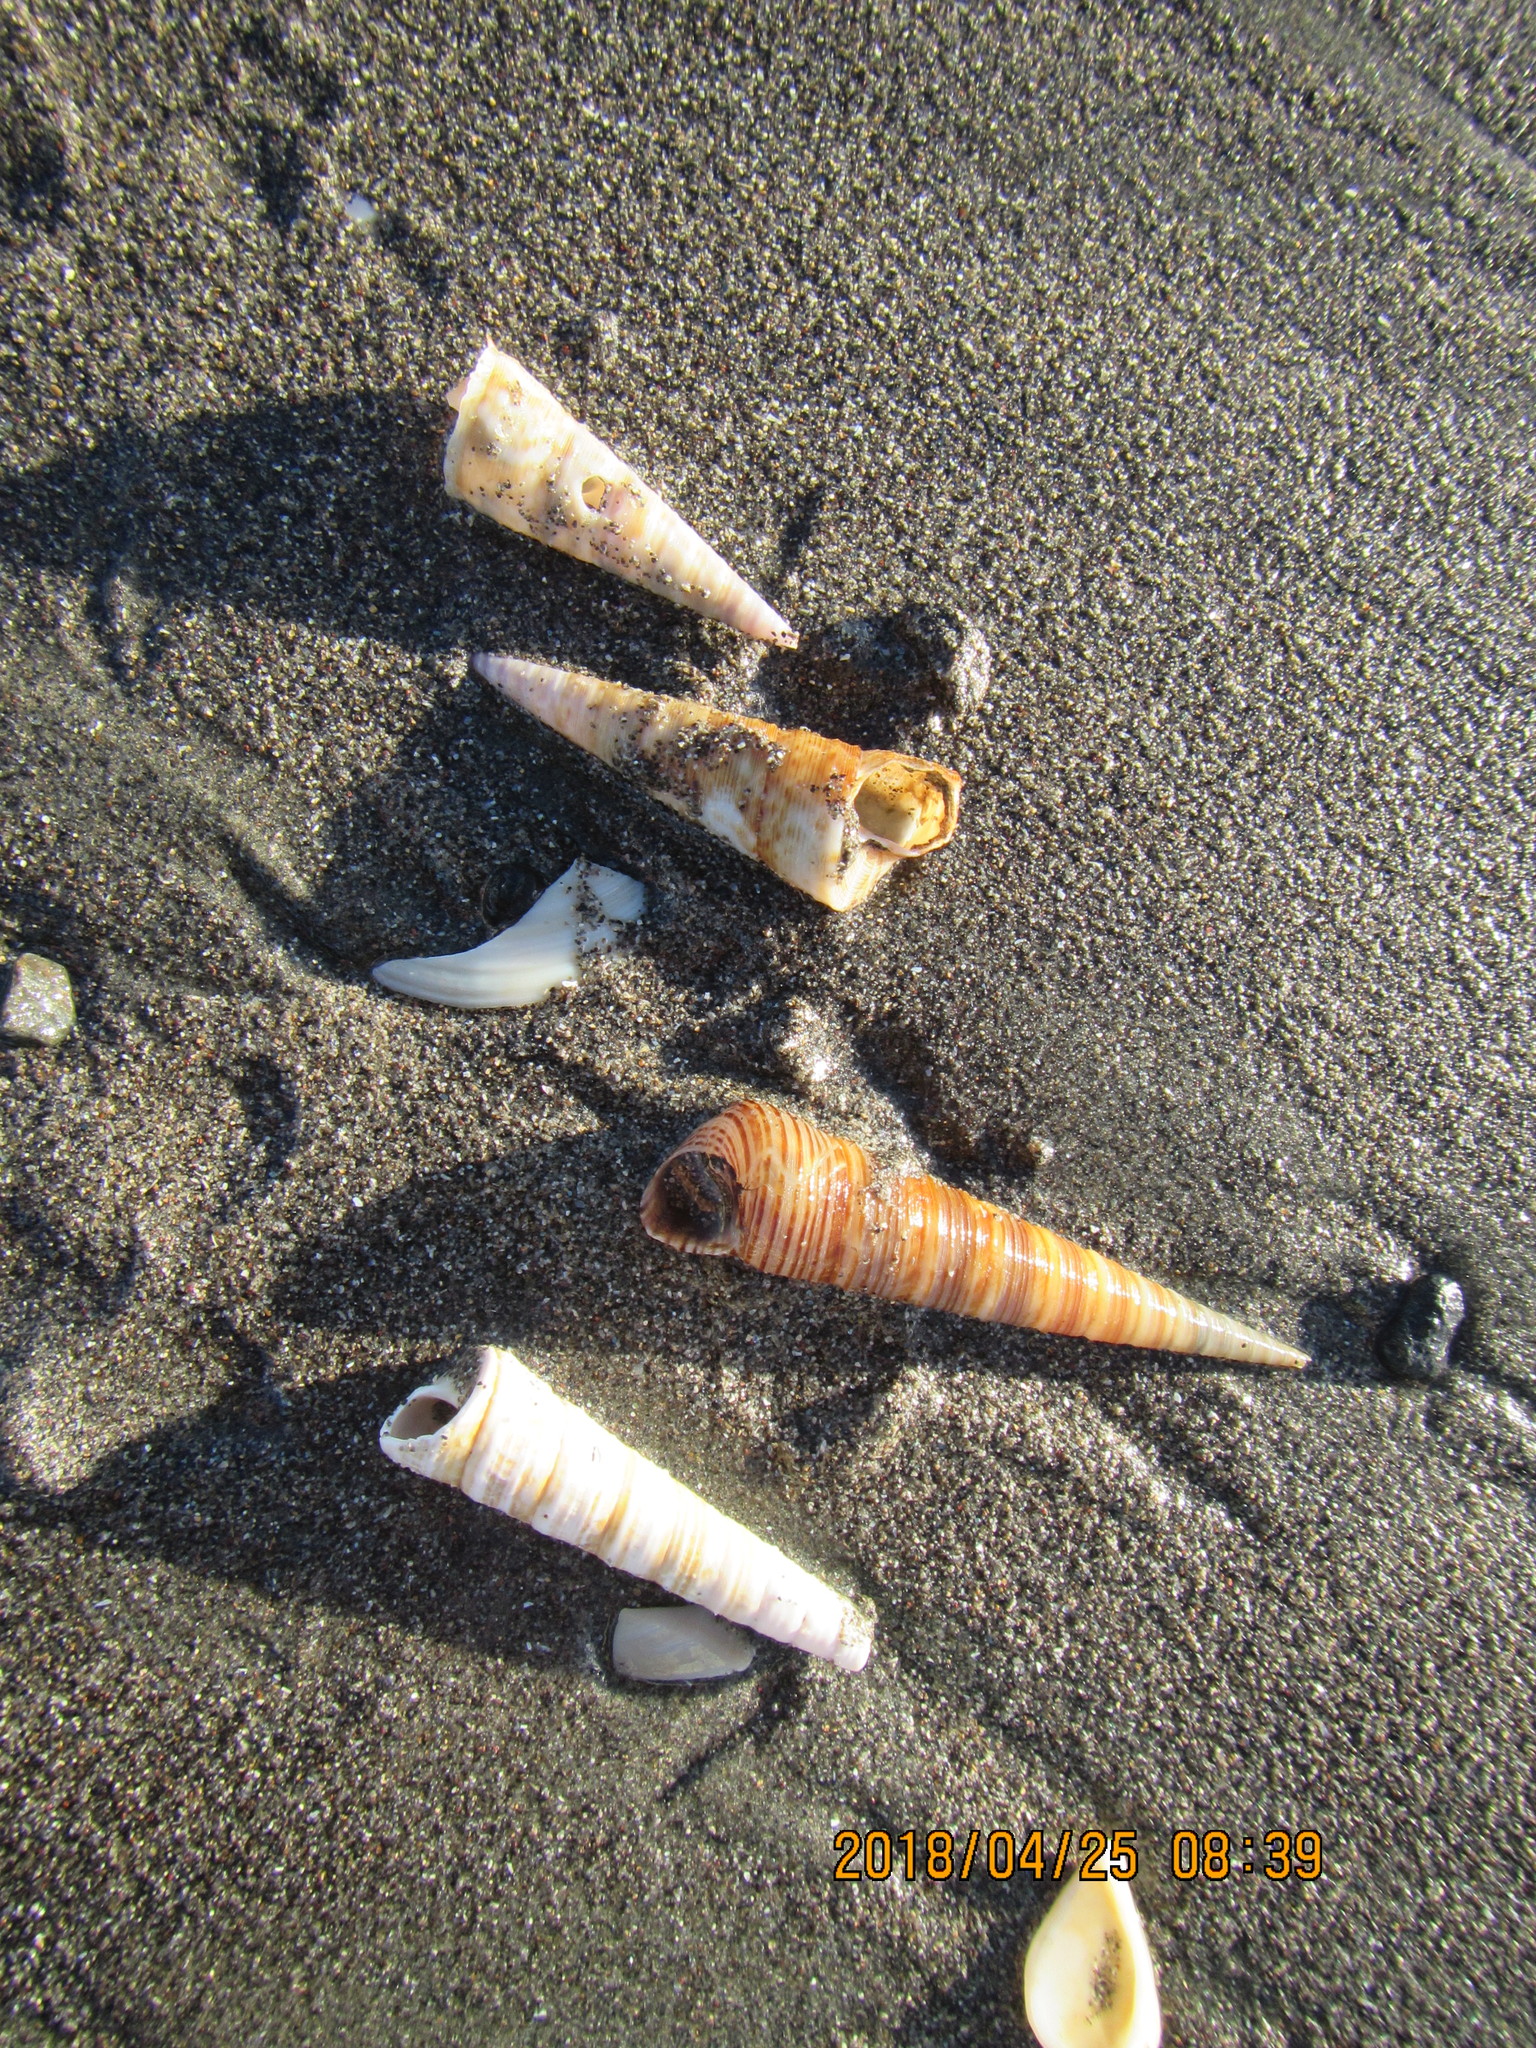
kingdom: Animalia
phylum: Mollusca
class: Gastropoda
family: Turritellidae
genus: Zeacolpus
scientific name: Zeacolpus vittatus
